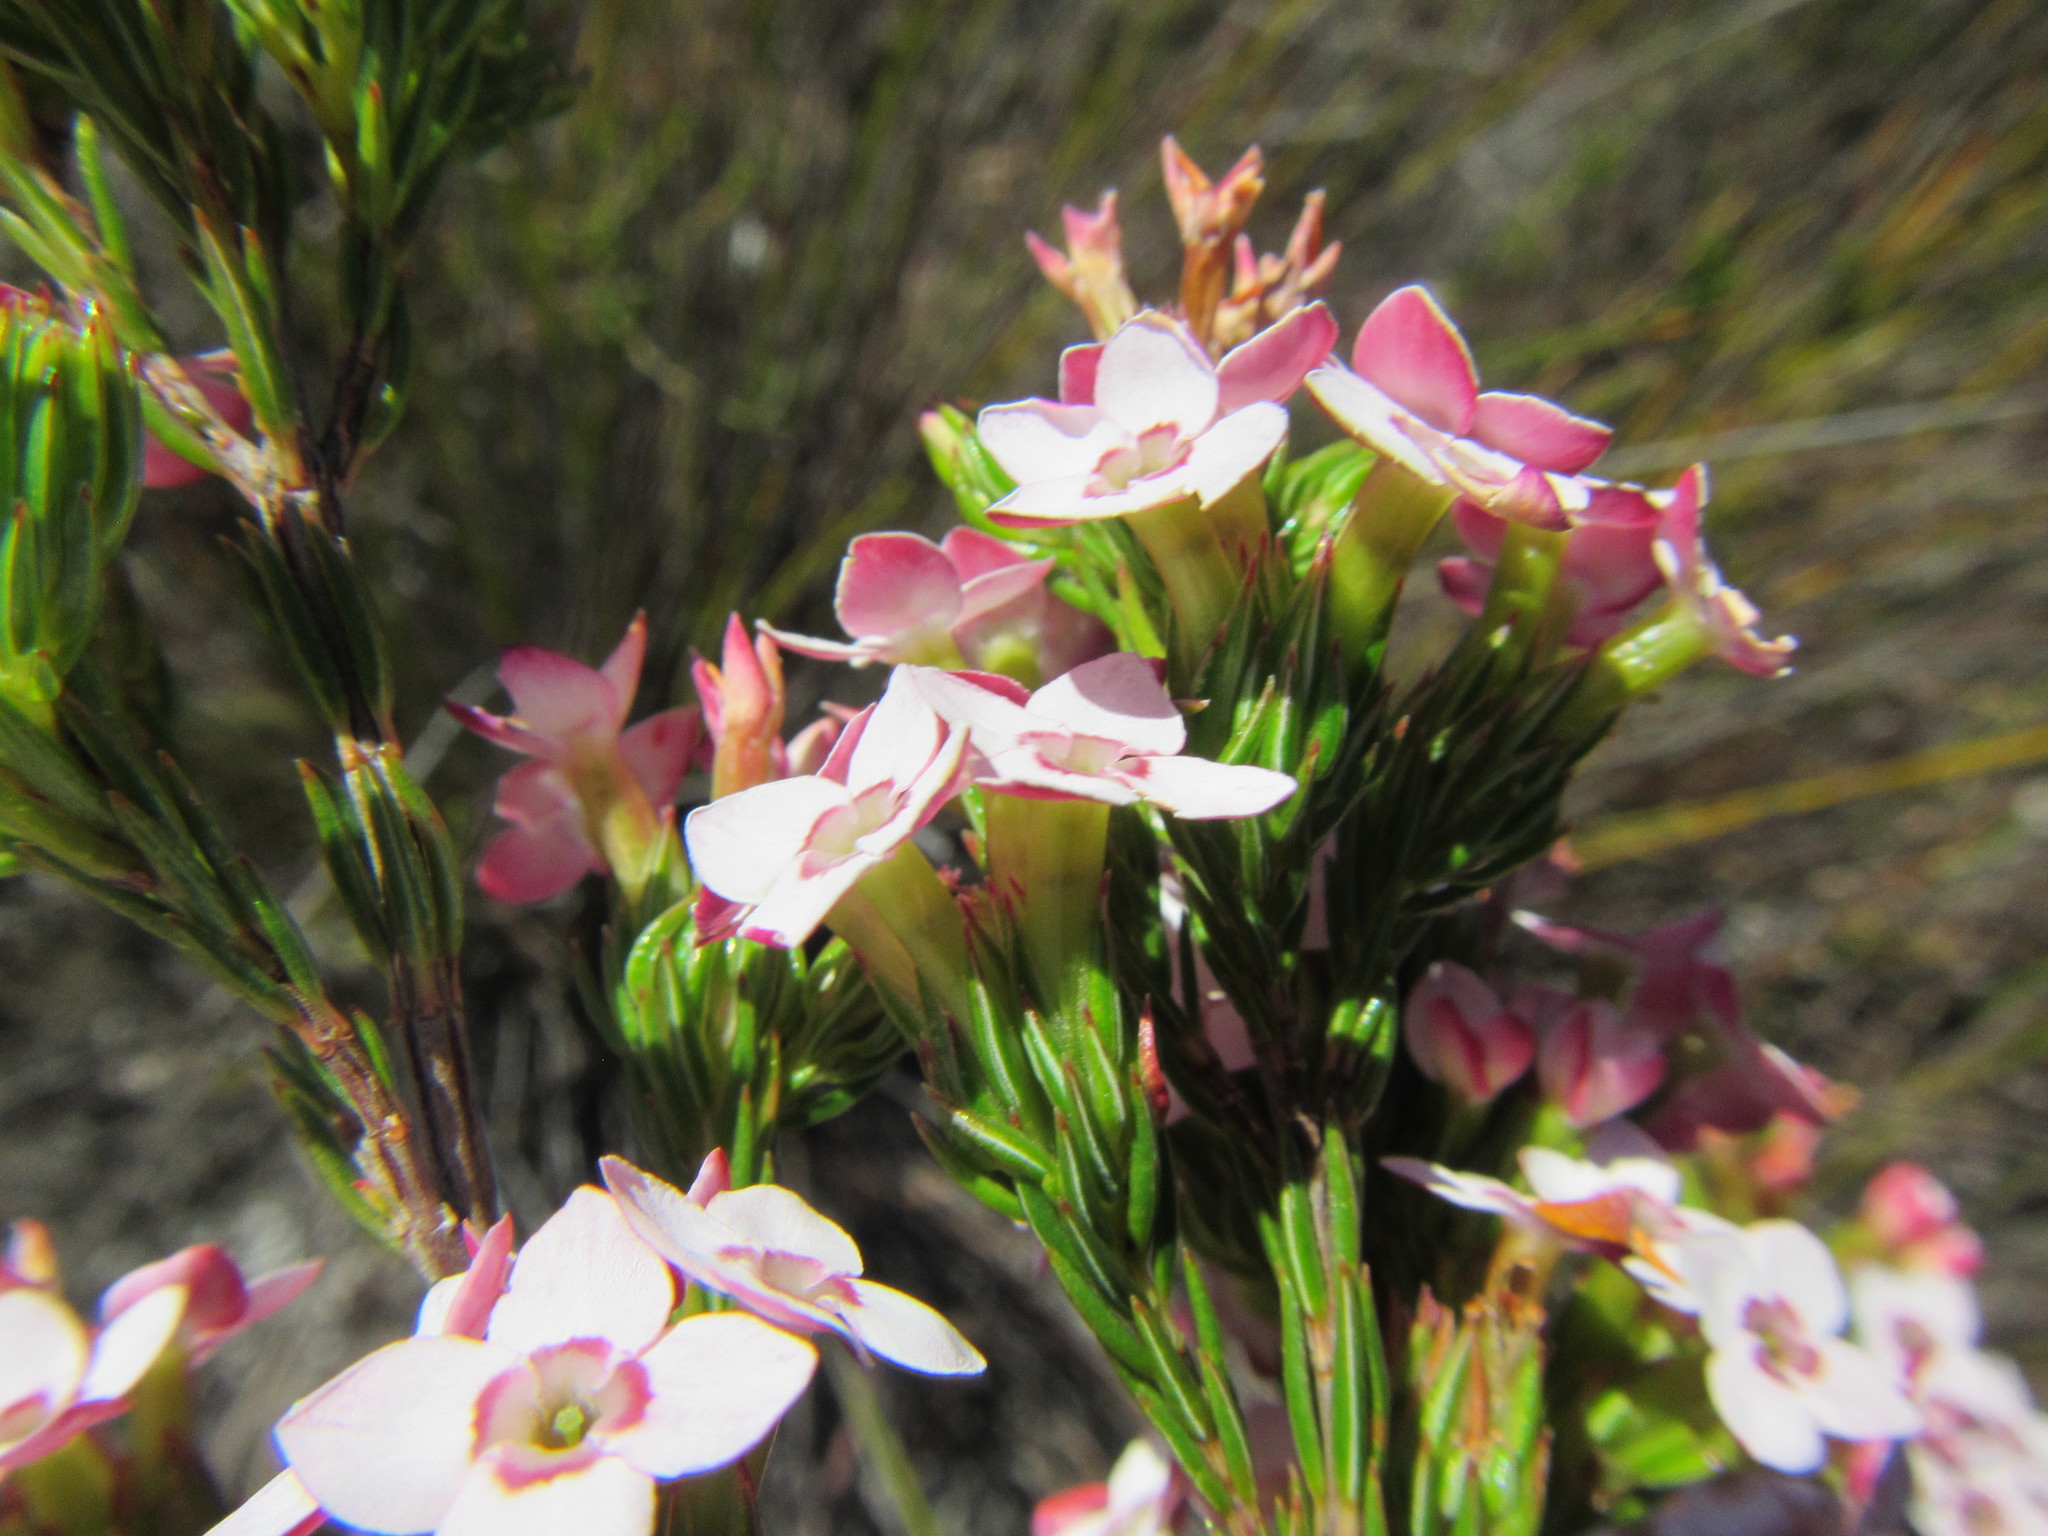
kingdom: Plantae
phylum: Tracheophyta
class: Magnoliopsida
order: Ericales
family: Ericaceae
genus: Erica
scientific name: Erica fastigiata
